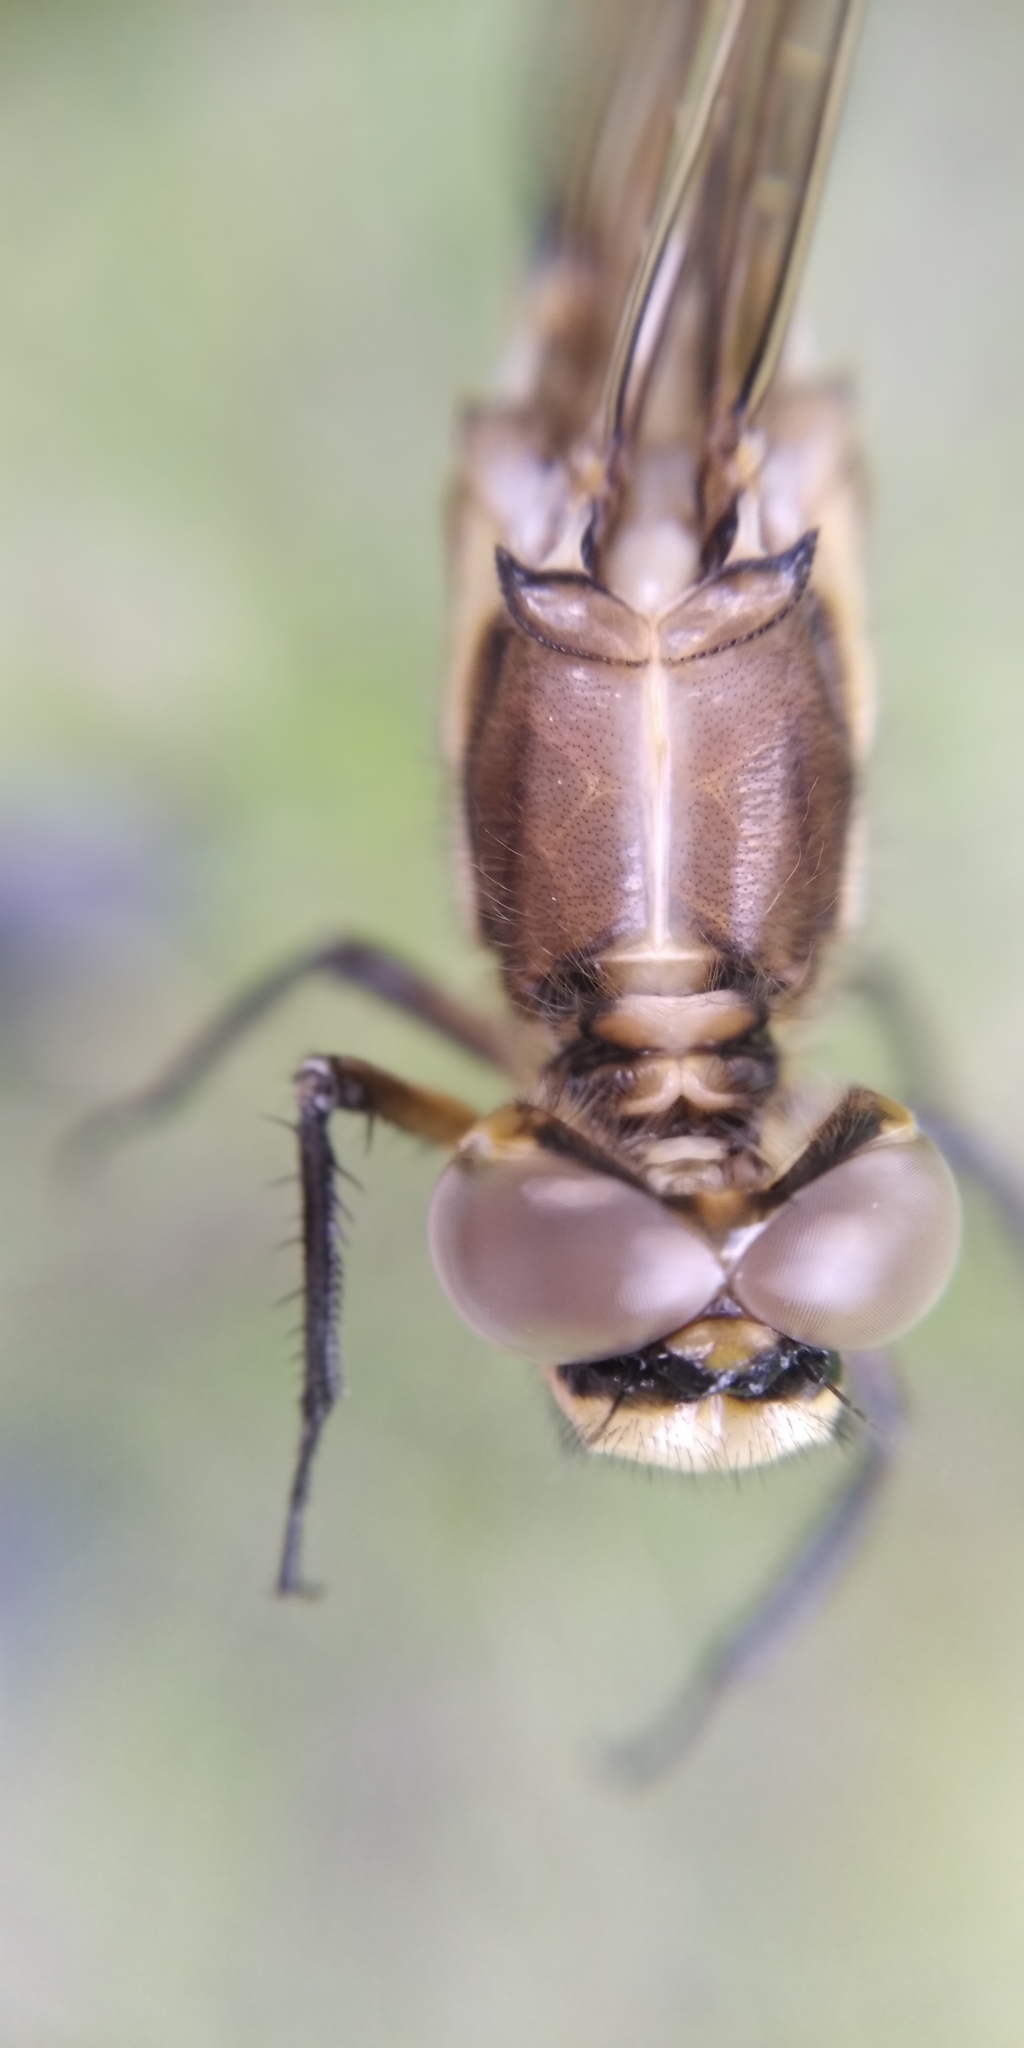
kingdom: Animalia
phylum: Arthropoda
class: Insecta
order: Odonata
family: Libellulidae
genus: Orthetrum
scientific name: Orthetrum albistylum
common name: White-tailed skimmer
